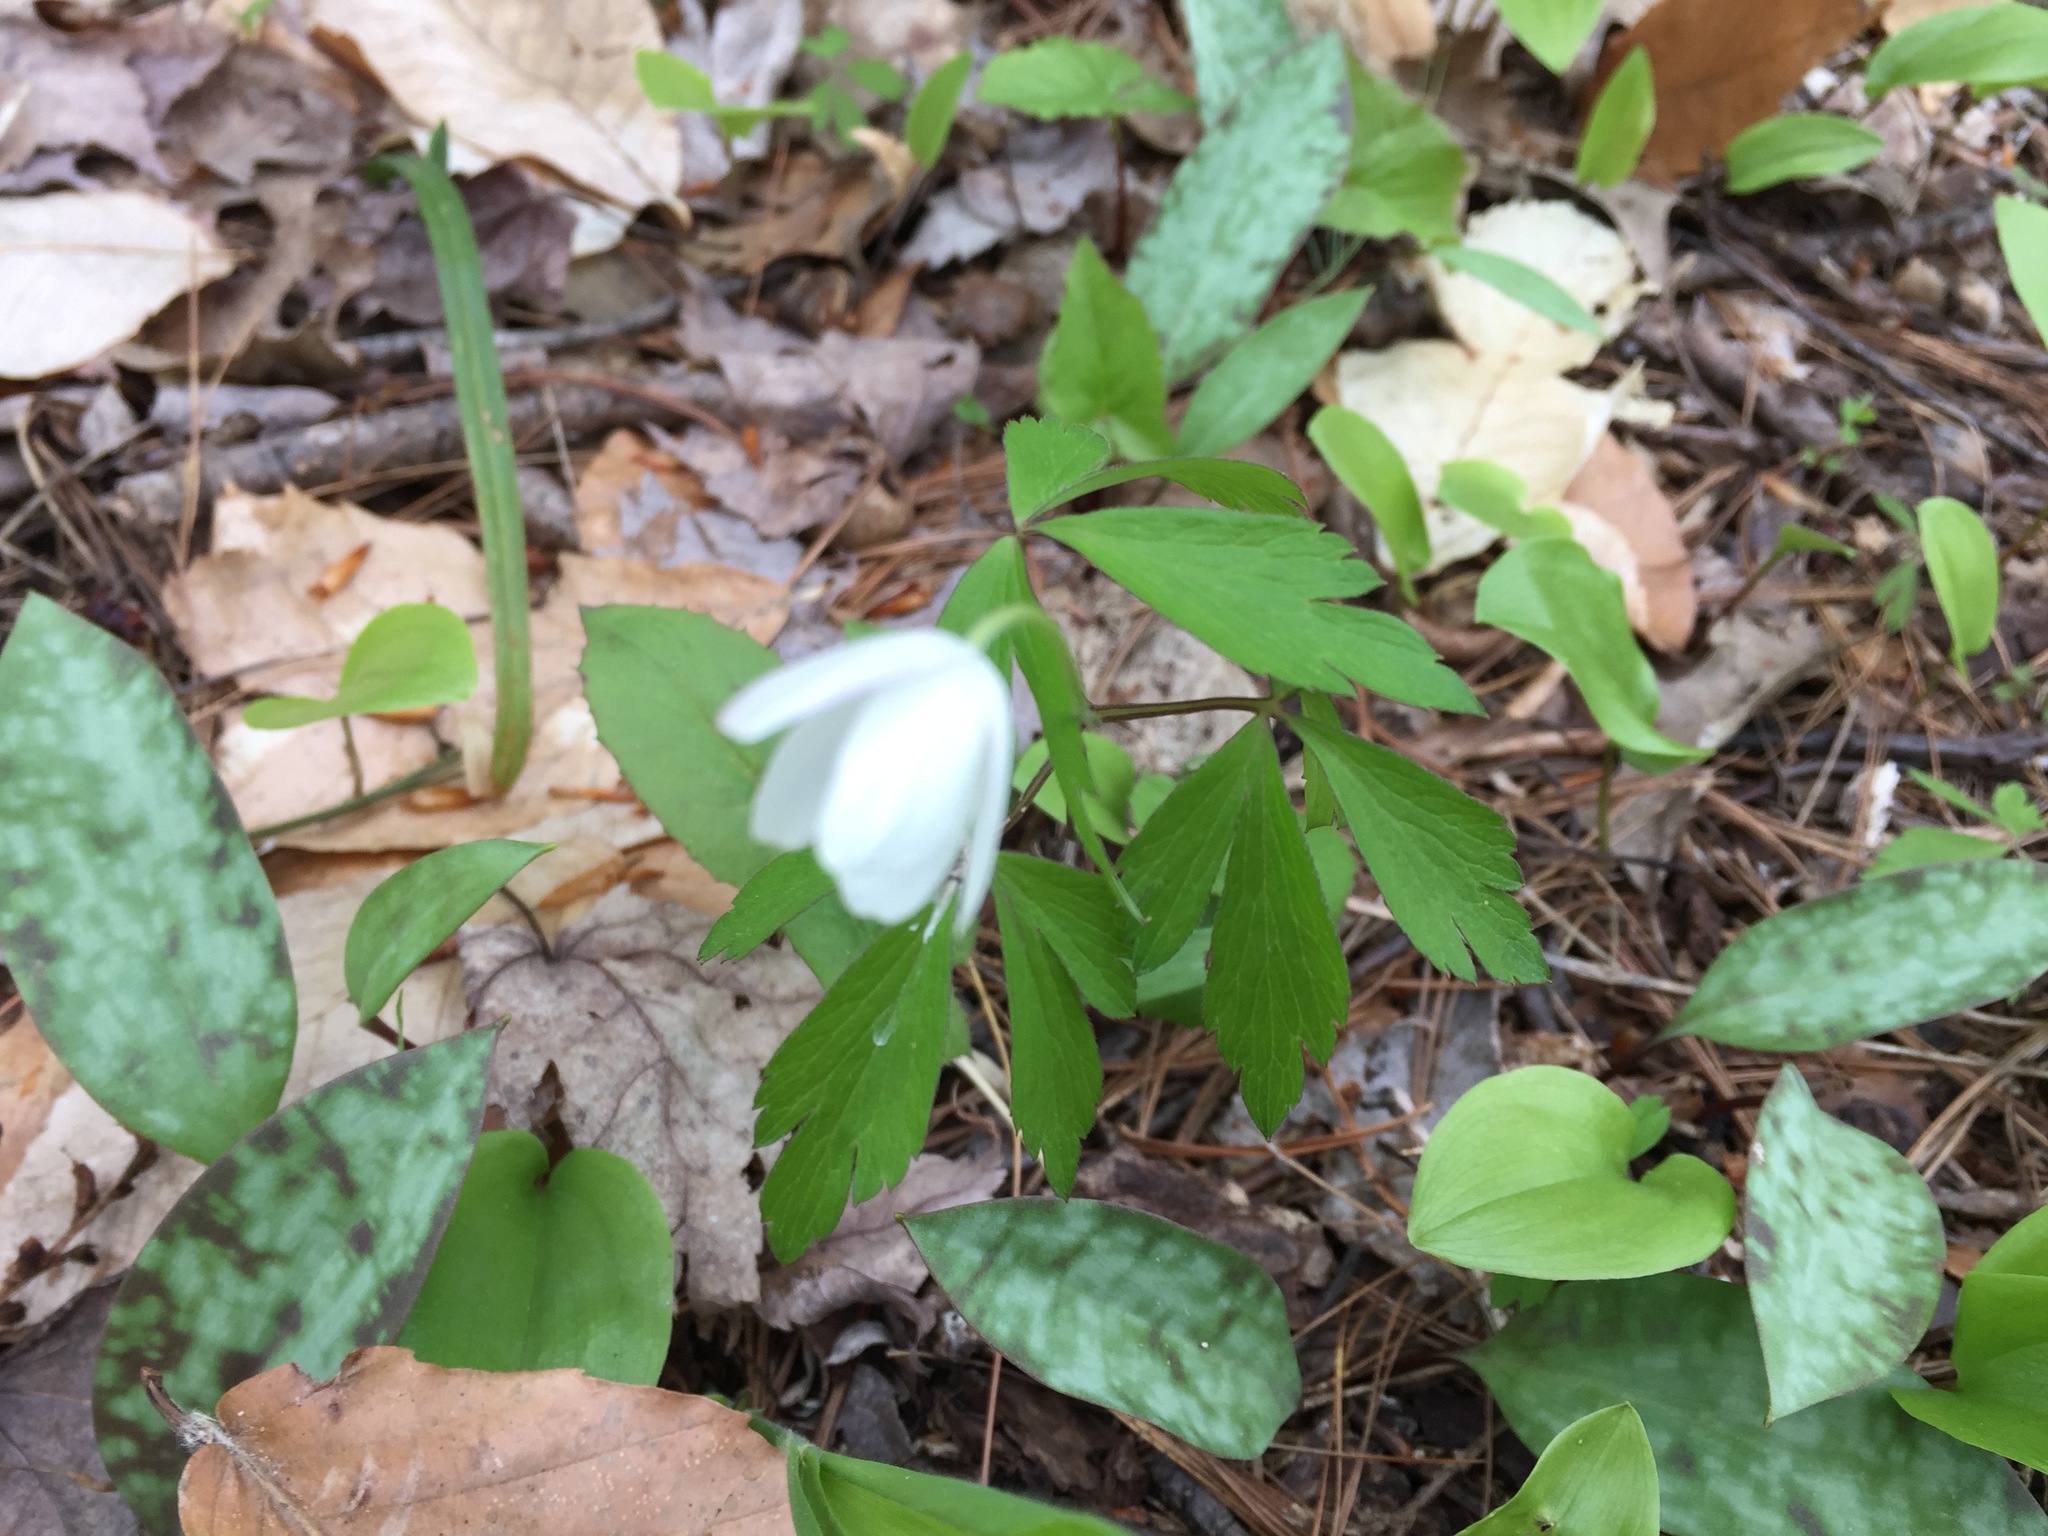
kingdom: Plantae
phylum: Tracheophyta
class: Magnoliopsida
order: Ranunculales
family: Ranunculaceae
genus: Anemone
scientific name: Anemone quinquefolia
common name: Wood anemone
